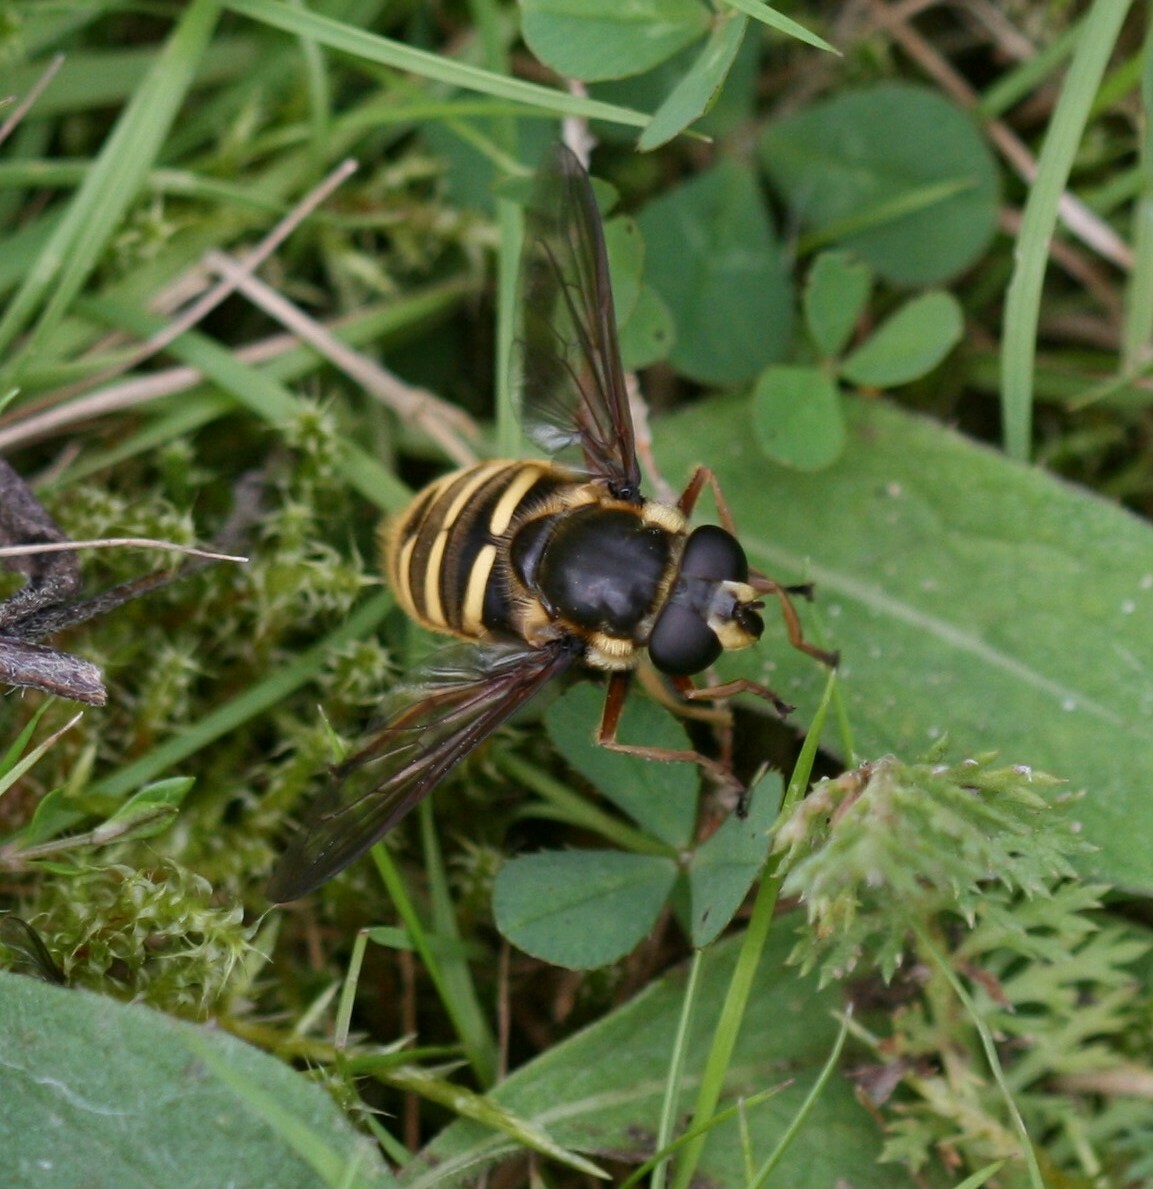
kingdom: Animalia
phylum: Arthropoda
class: Insecta
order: Diptera
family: Syrphidae
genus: Sericomyia
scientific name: Sericomyia silentis
